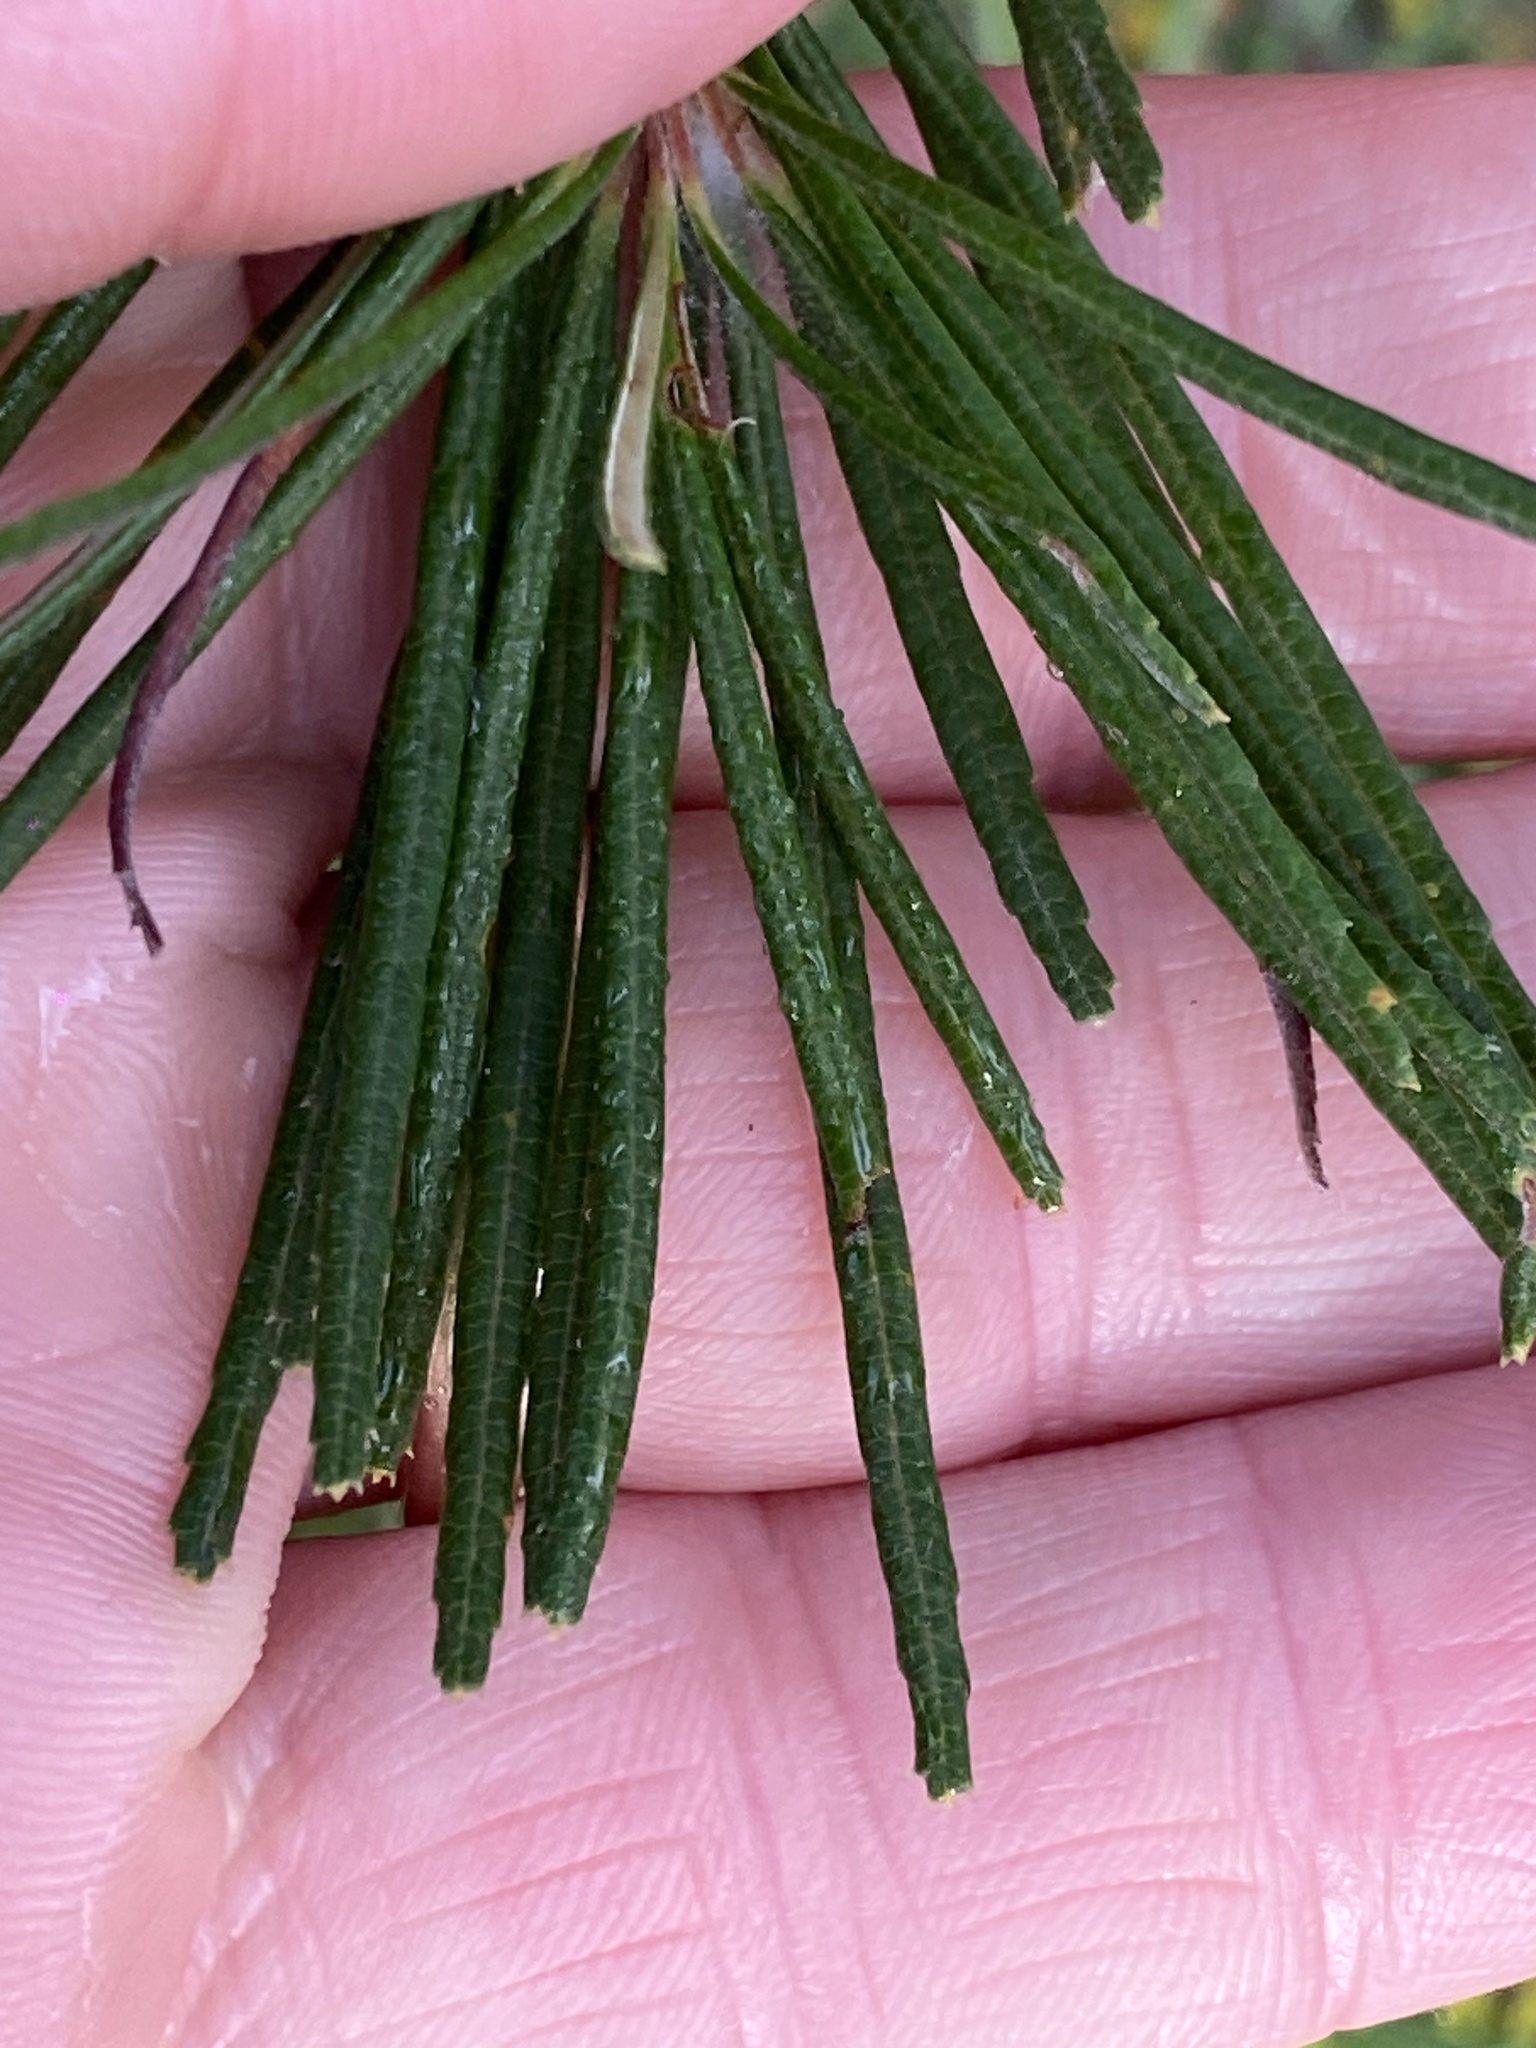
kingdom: Plantae
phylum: Tracheophyta
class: Magnoliopsida
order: Proteales
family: Proteaceae
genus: Banksia
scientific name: Banksia spinulosa
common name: Hairpin banksia
